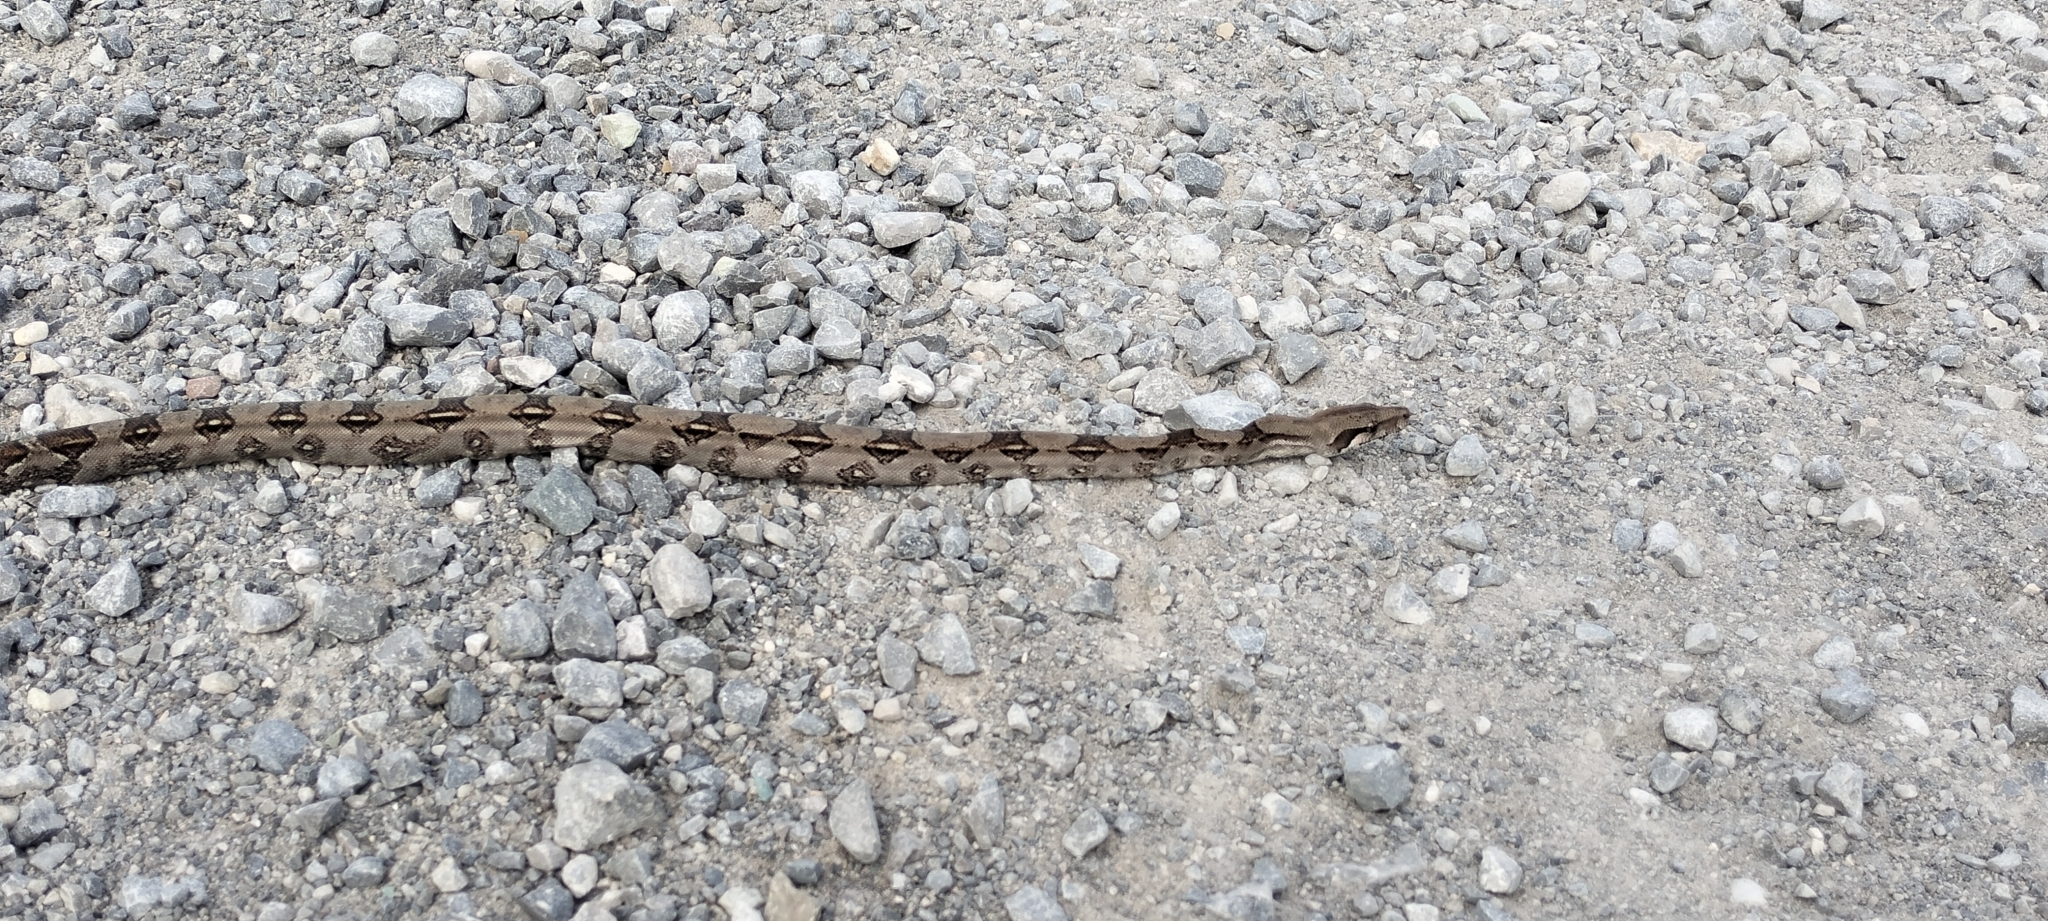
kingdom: Animalia
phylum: Chordata
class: Squamata
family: Boidae
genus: Boa
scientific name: Boa imperator
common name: Central american boa
